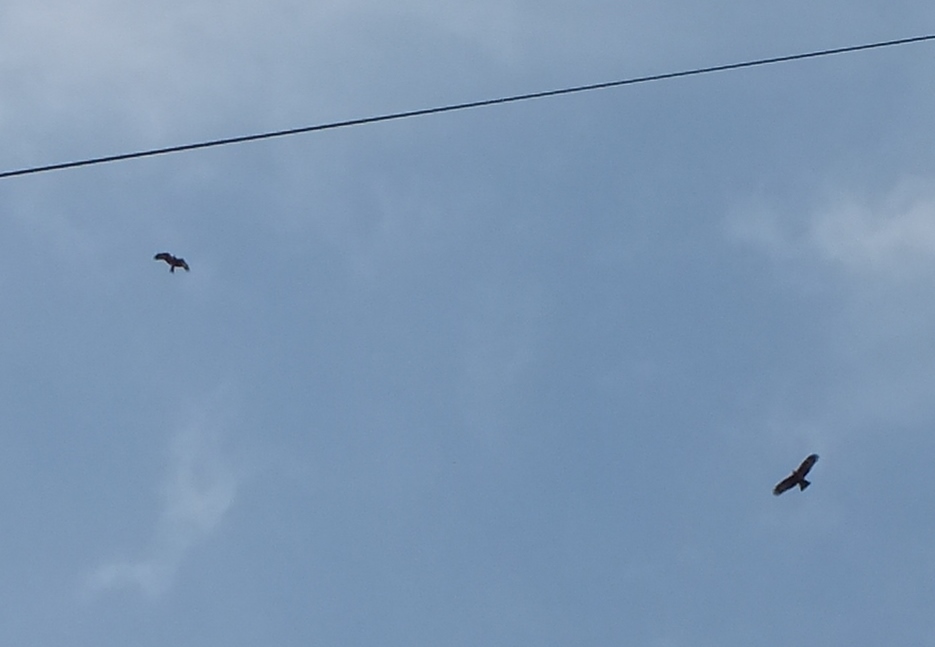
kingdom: Animalia
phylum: Chordata
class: Aves
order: Accipitriformes
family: Accipitridae
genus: Milvus
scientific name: Milvus migrans
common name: Black kite
